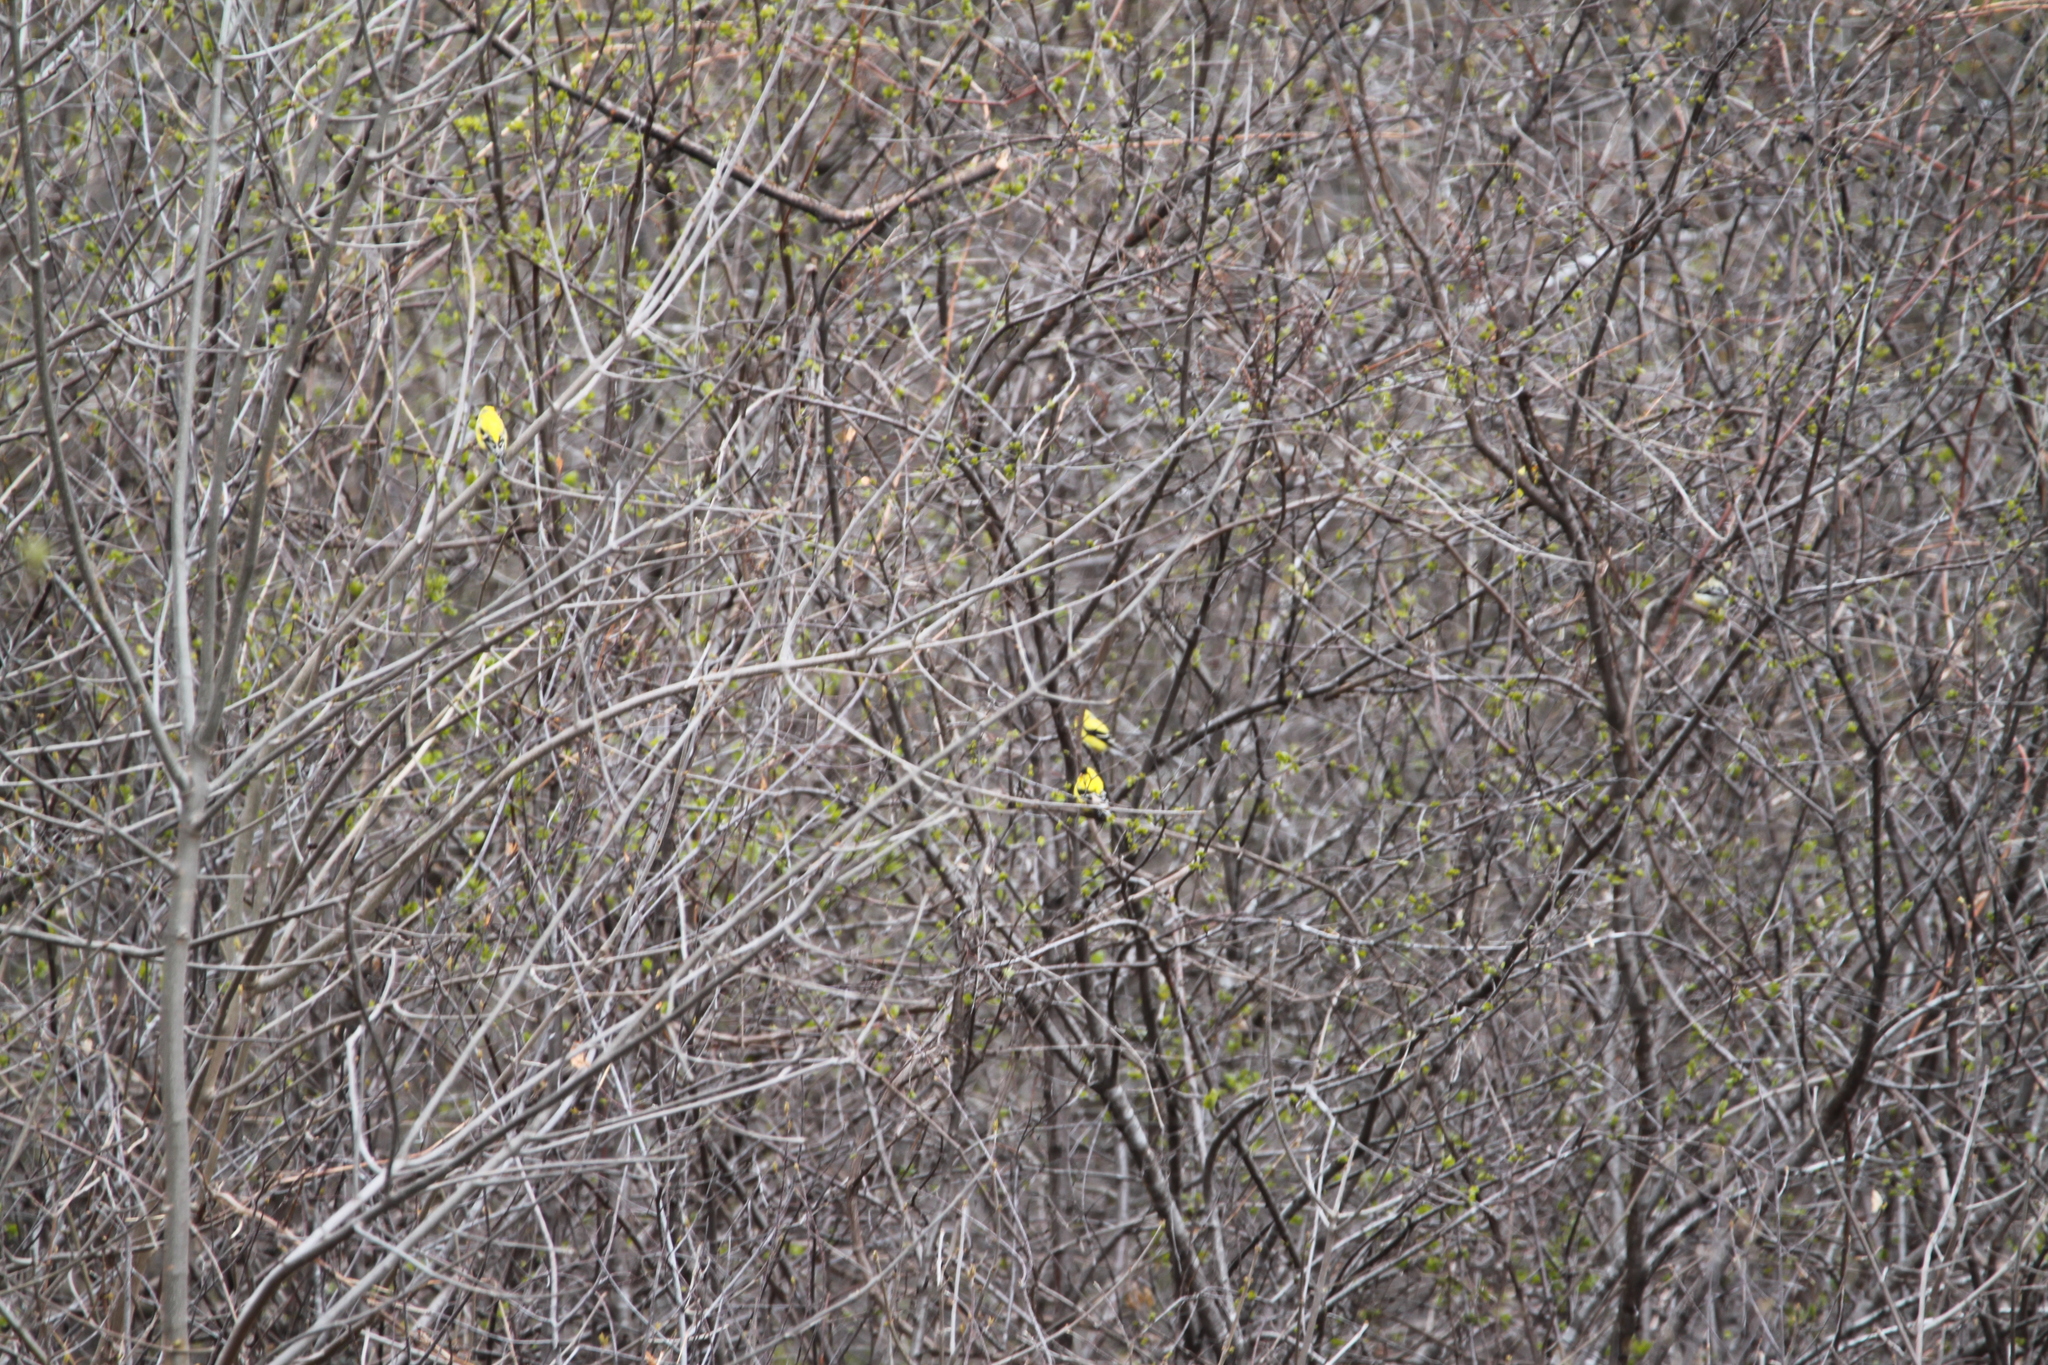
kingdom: Animalia
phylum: Chordata
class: Aves
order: Passeriformes
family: Fringillidae
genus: Spinus
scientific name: Spinus tristis
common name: American goldfinch
